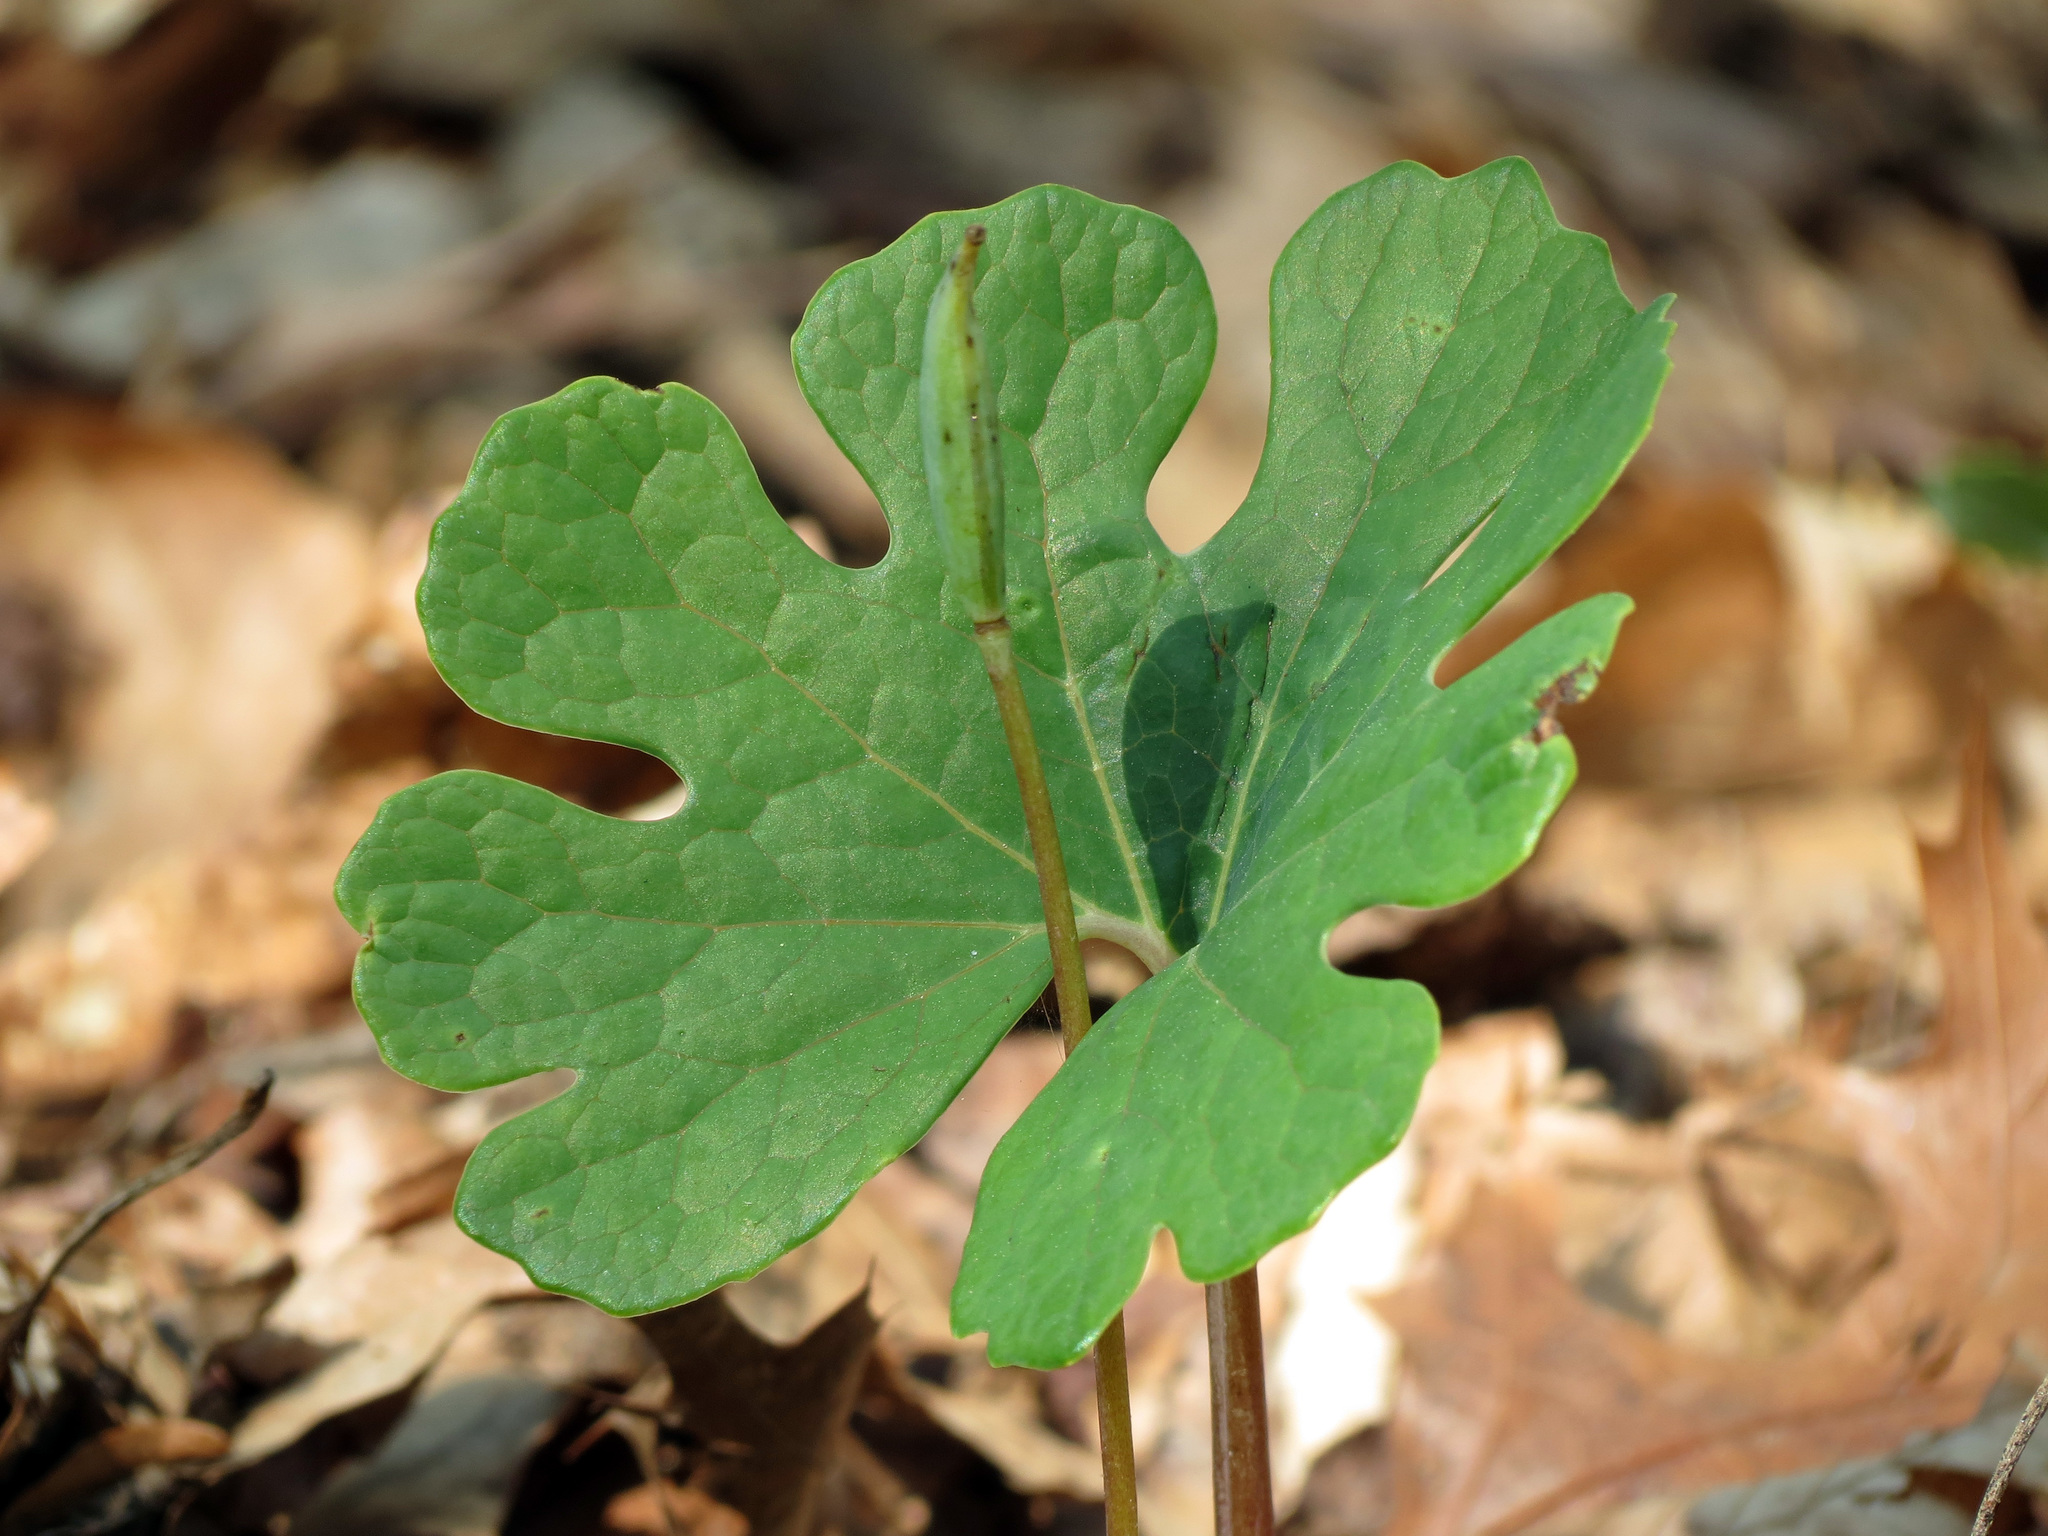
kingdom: Plantae
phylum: Tracheophyta
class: Magnoliopsida
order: Ranunculales
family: Papaveraceae
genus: Sanguinaria
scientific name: Sanguinaria canadensis
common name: Bloodroot
